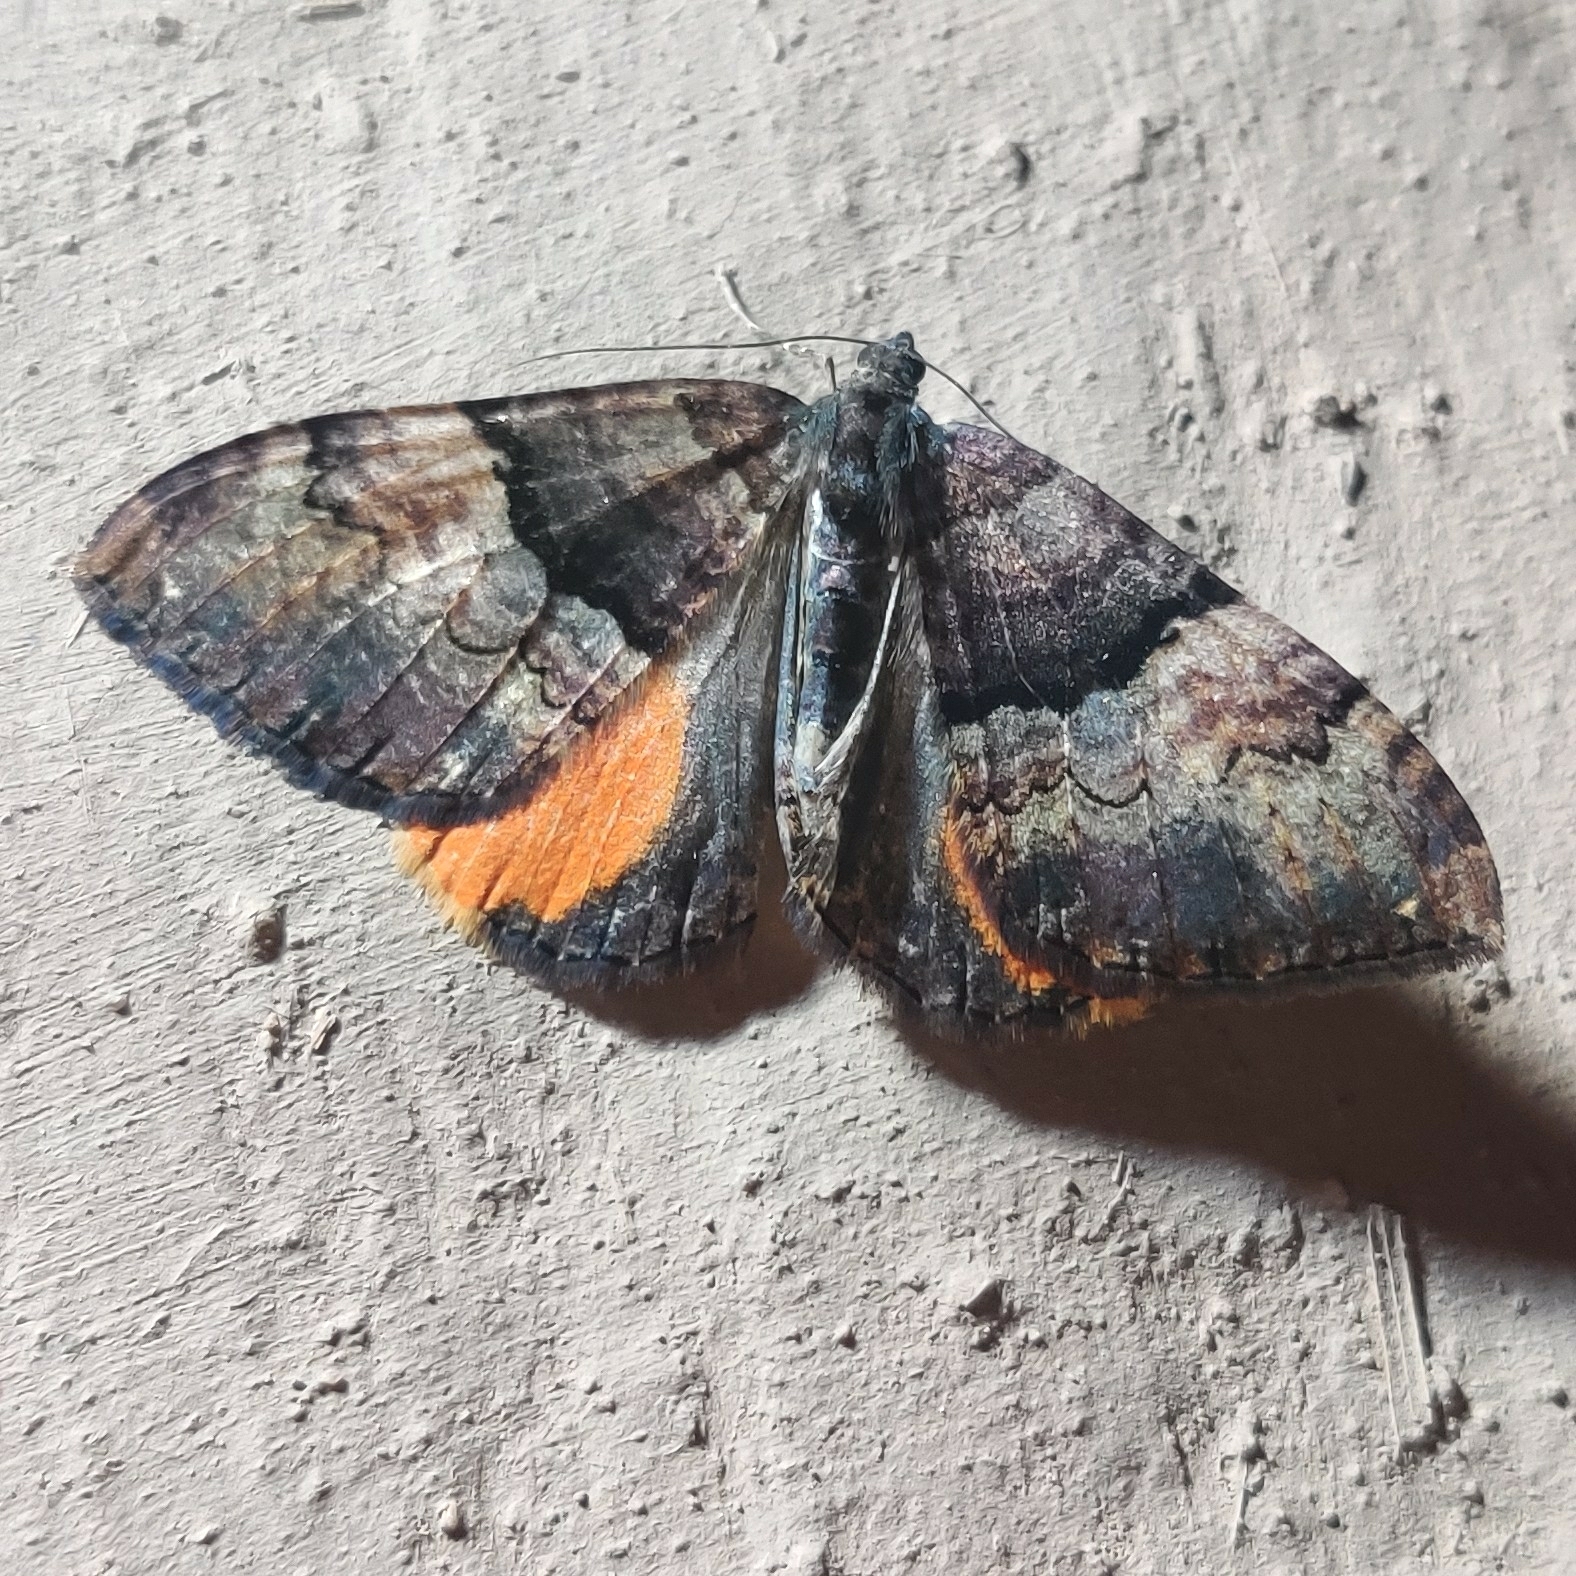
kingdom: Animalia
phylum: Arthropoda
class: Insecta
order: Lepidoptera
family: Geometridae
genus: Photoscotosia
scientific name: Photoscotosia miniosata
